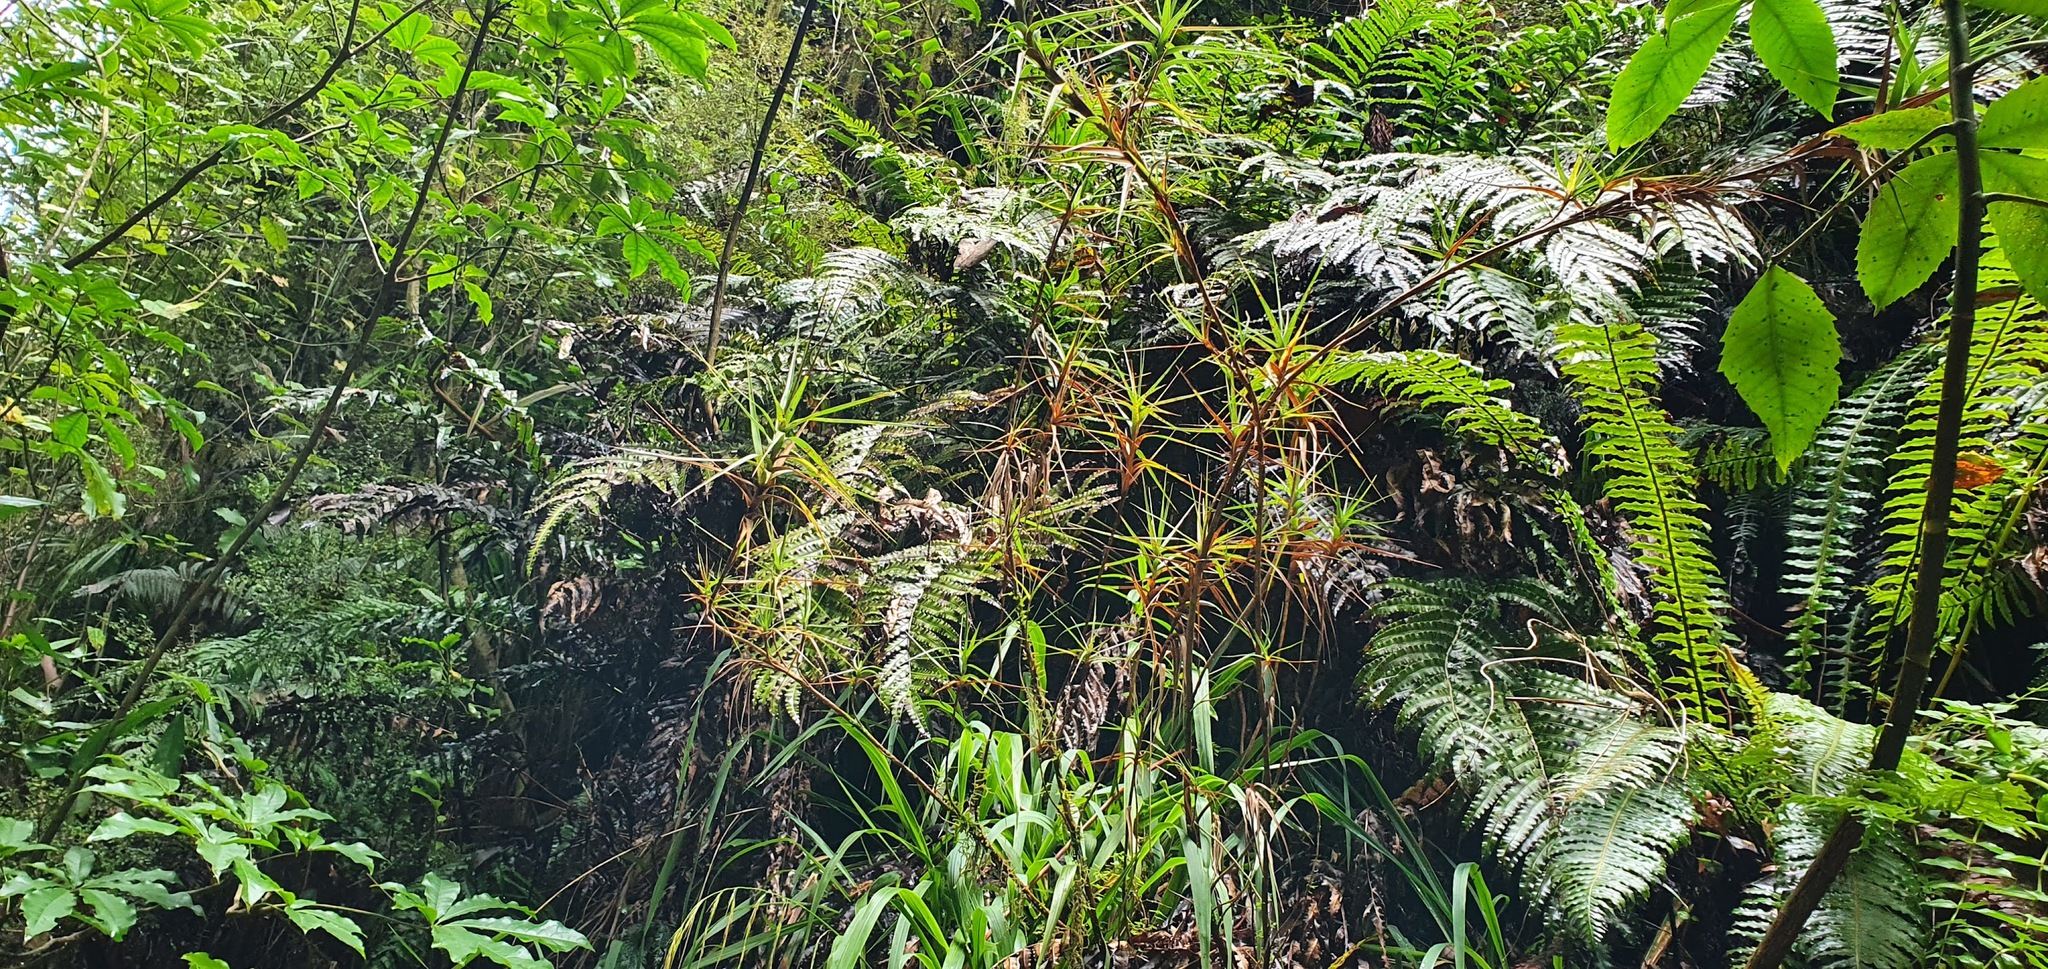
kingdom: Plantae
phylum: Tracheophyta
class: Magnoliopsida
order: Ericales
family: Ericaceae
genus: Dracophyllum
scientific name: Dracophyllum longifolium
